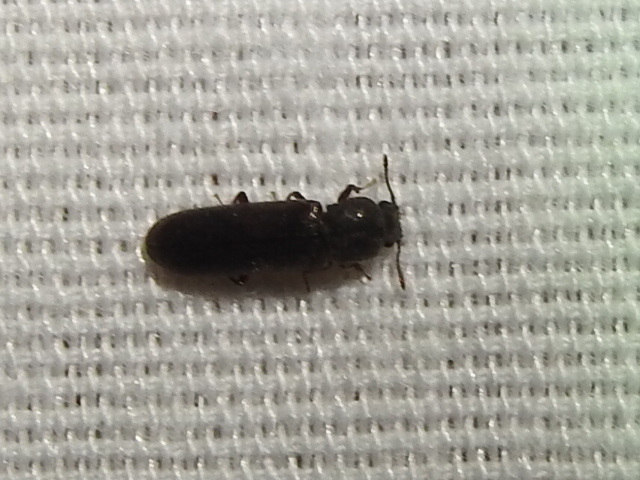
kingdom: Animalia
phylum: Arthropoda
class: Insecta
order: Coleoptera
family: Bostrichidae
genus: Lyctus
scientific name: Lyctus carbonarius
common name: Powderpost beetle
